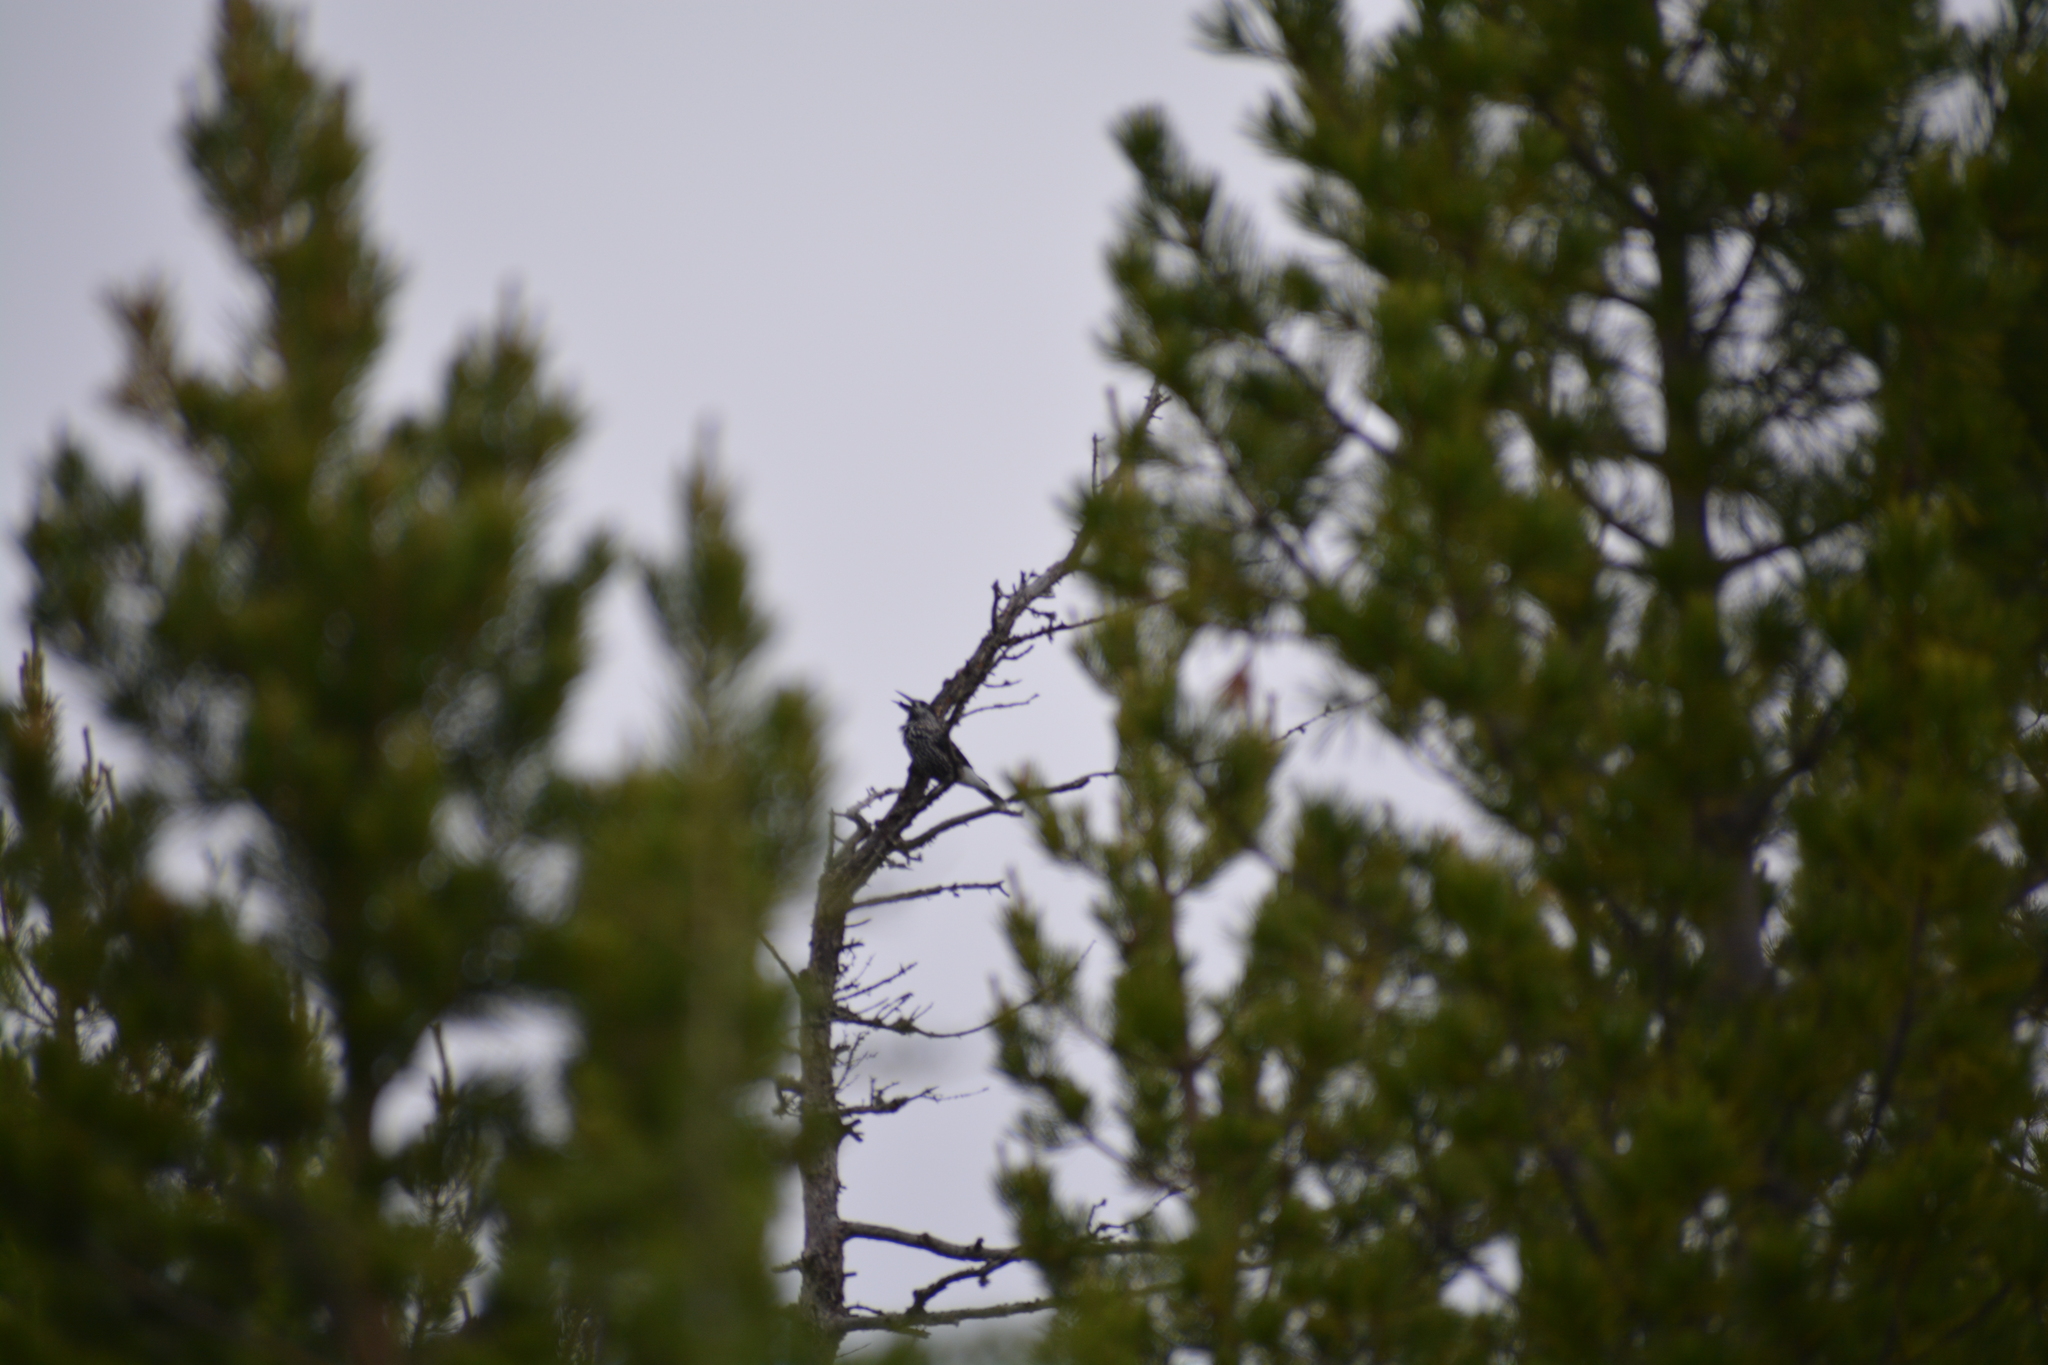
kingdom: Animalia
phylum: Chordata
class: Aves
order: Passeriformes
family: Corvidae
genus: Nucifraga
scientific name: Nucifraga caryocatactes
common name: Spotted nutcracker
